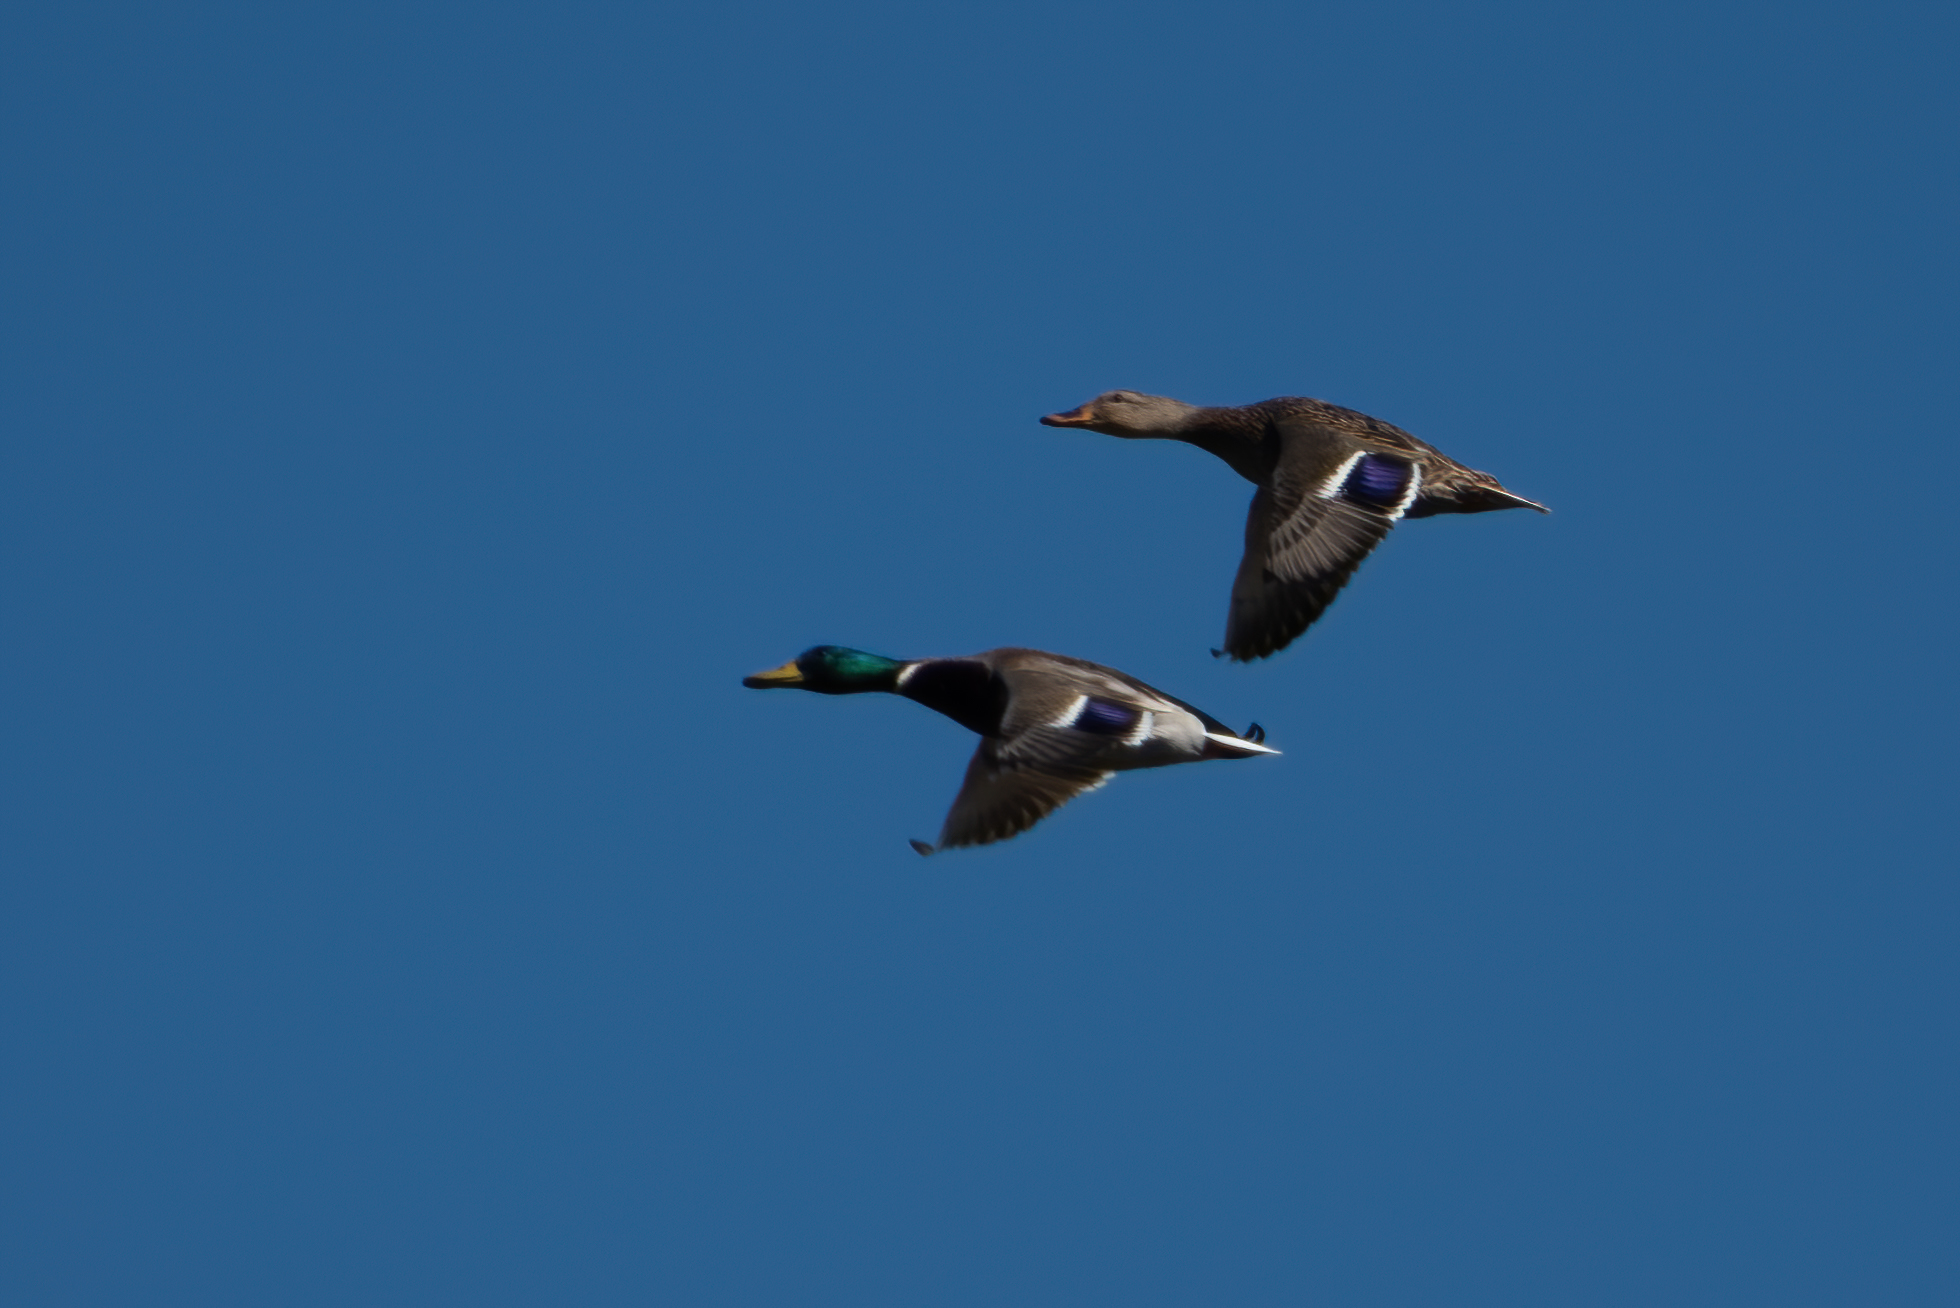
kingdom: Animalia
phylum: Chordata
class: Aves
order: Anseriformes
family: Anatidae
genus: Anas
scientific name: Anas platyrhynchos
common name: Mallard
